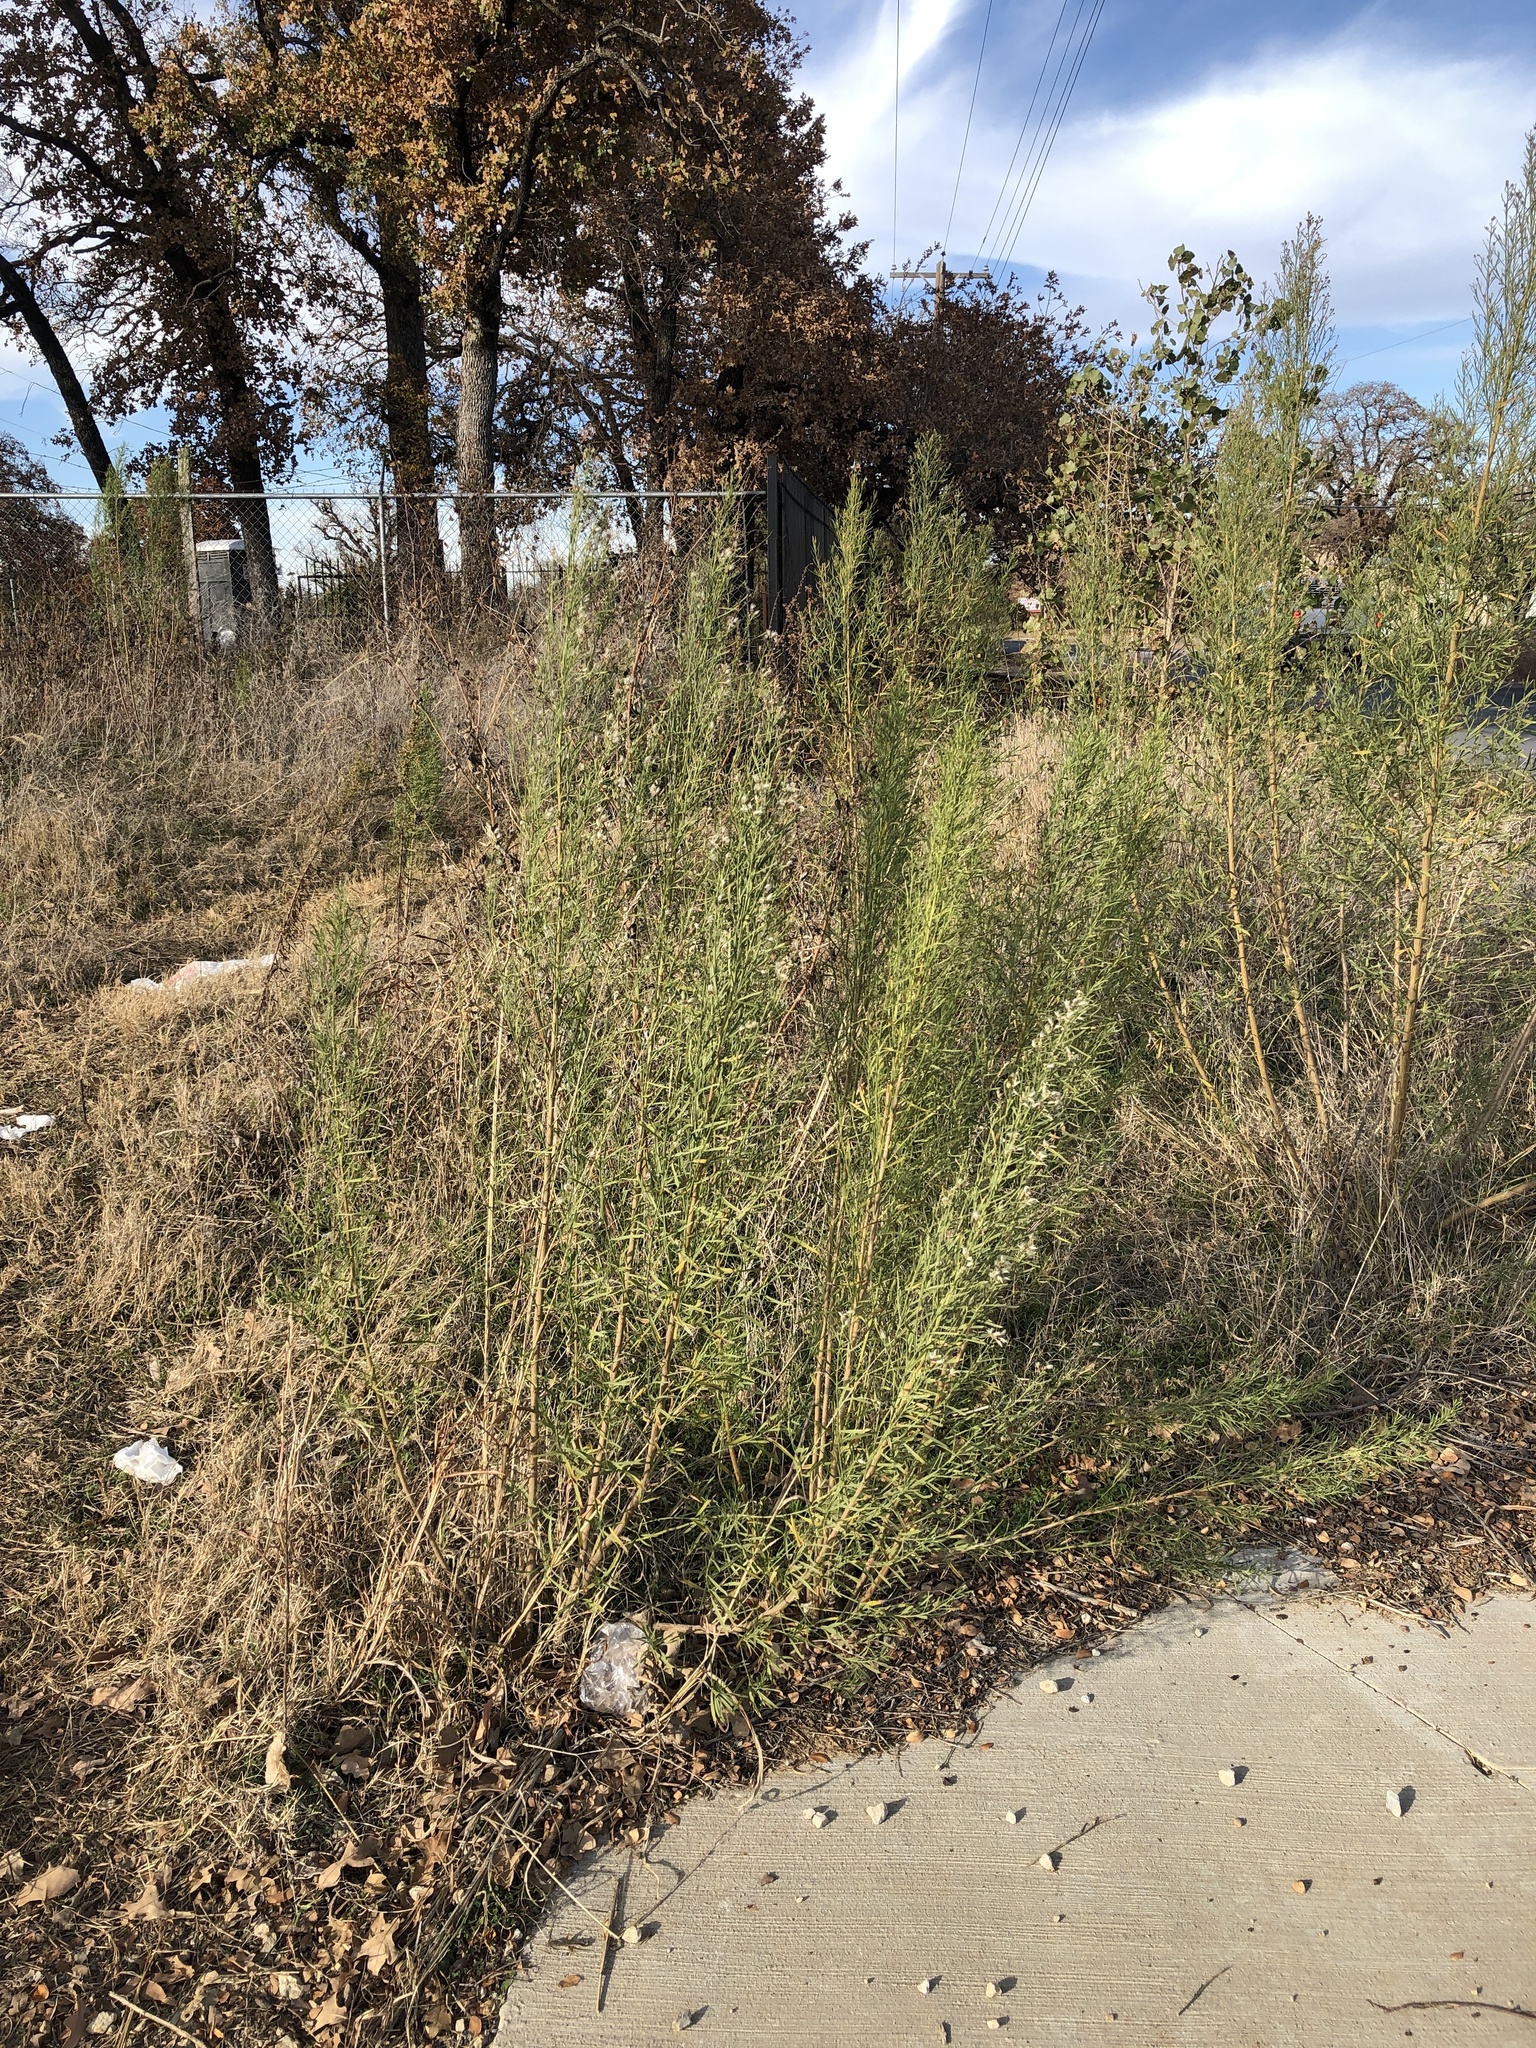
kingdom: Plantae
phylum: Tracheophyta
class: Magnoliopsida
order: Asterales
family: Asteraceae
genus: Baccharis
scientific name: Baccharis neglecta
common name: Roosevelt-weed
